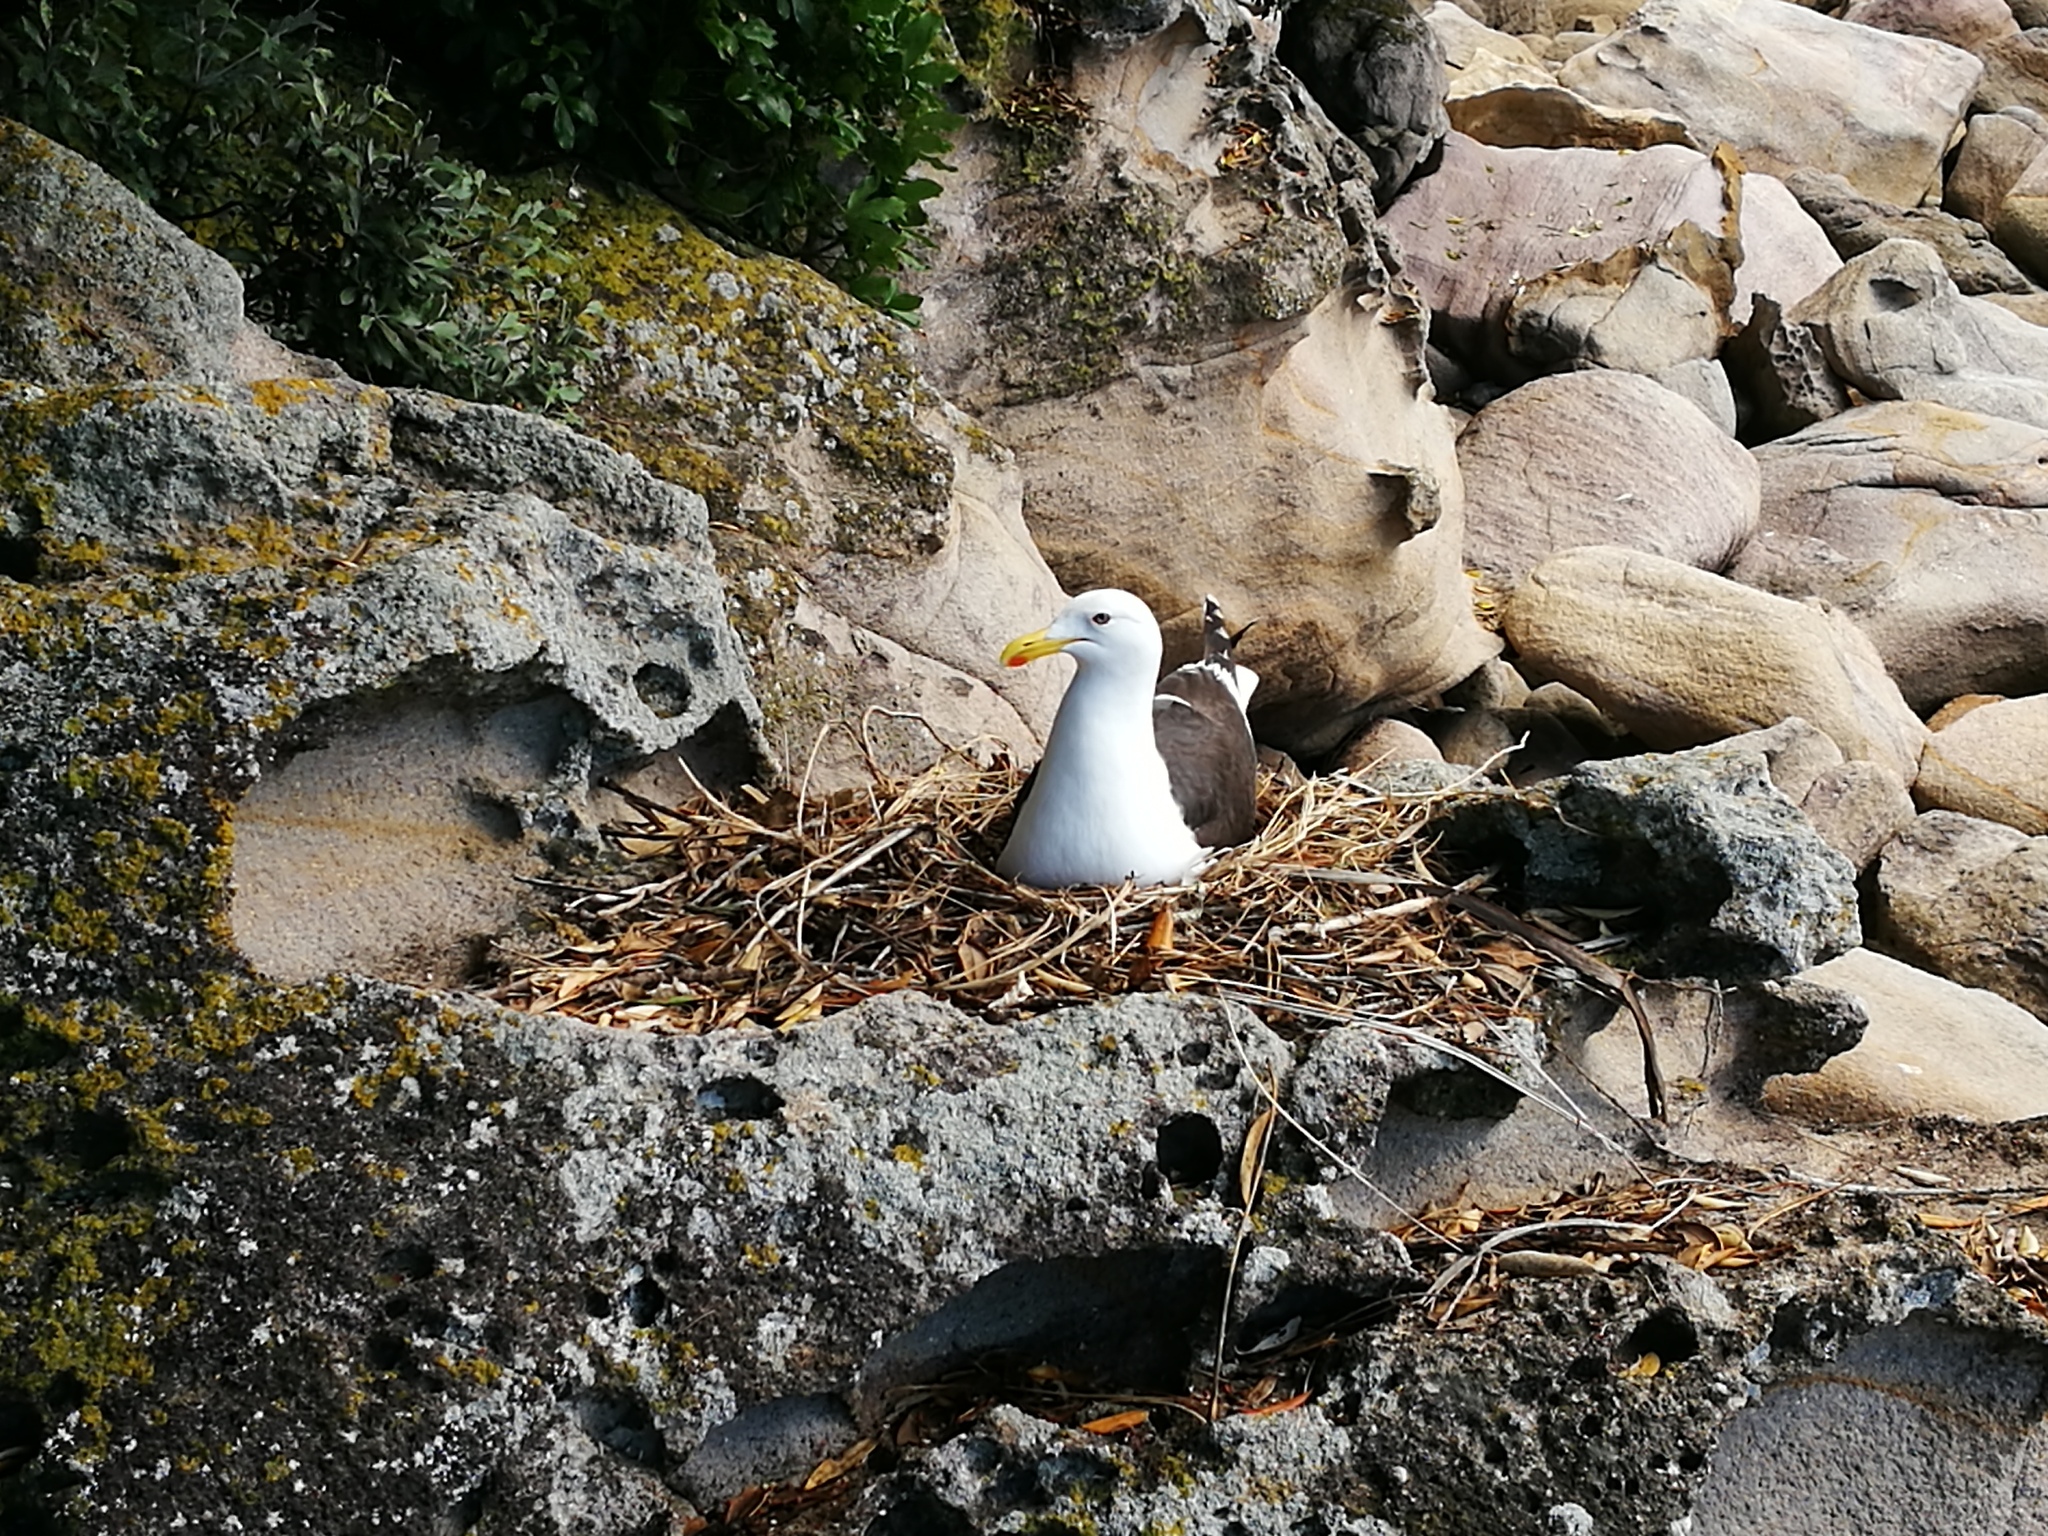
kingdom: Animalia
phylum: Chordata
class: Aves
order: Charadriiformes
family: Laridae
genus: Larus
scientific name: Larus dominicanus
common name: Kelp gull
